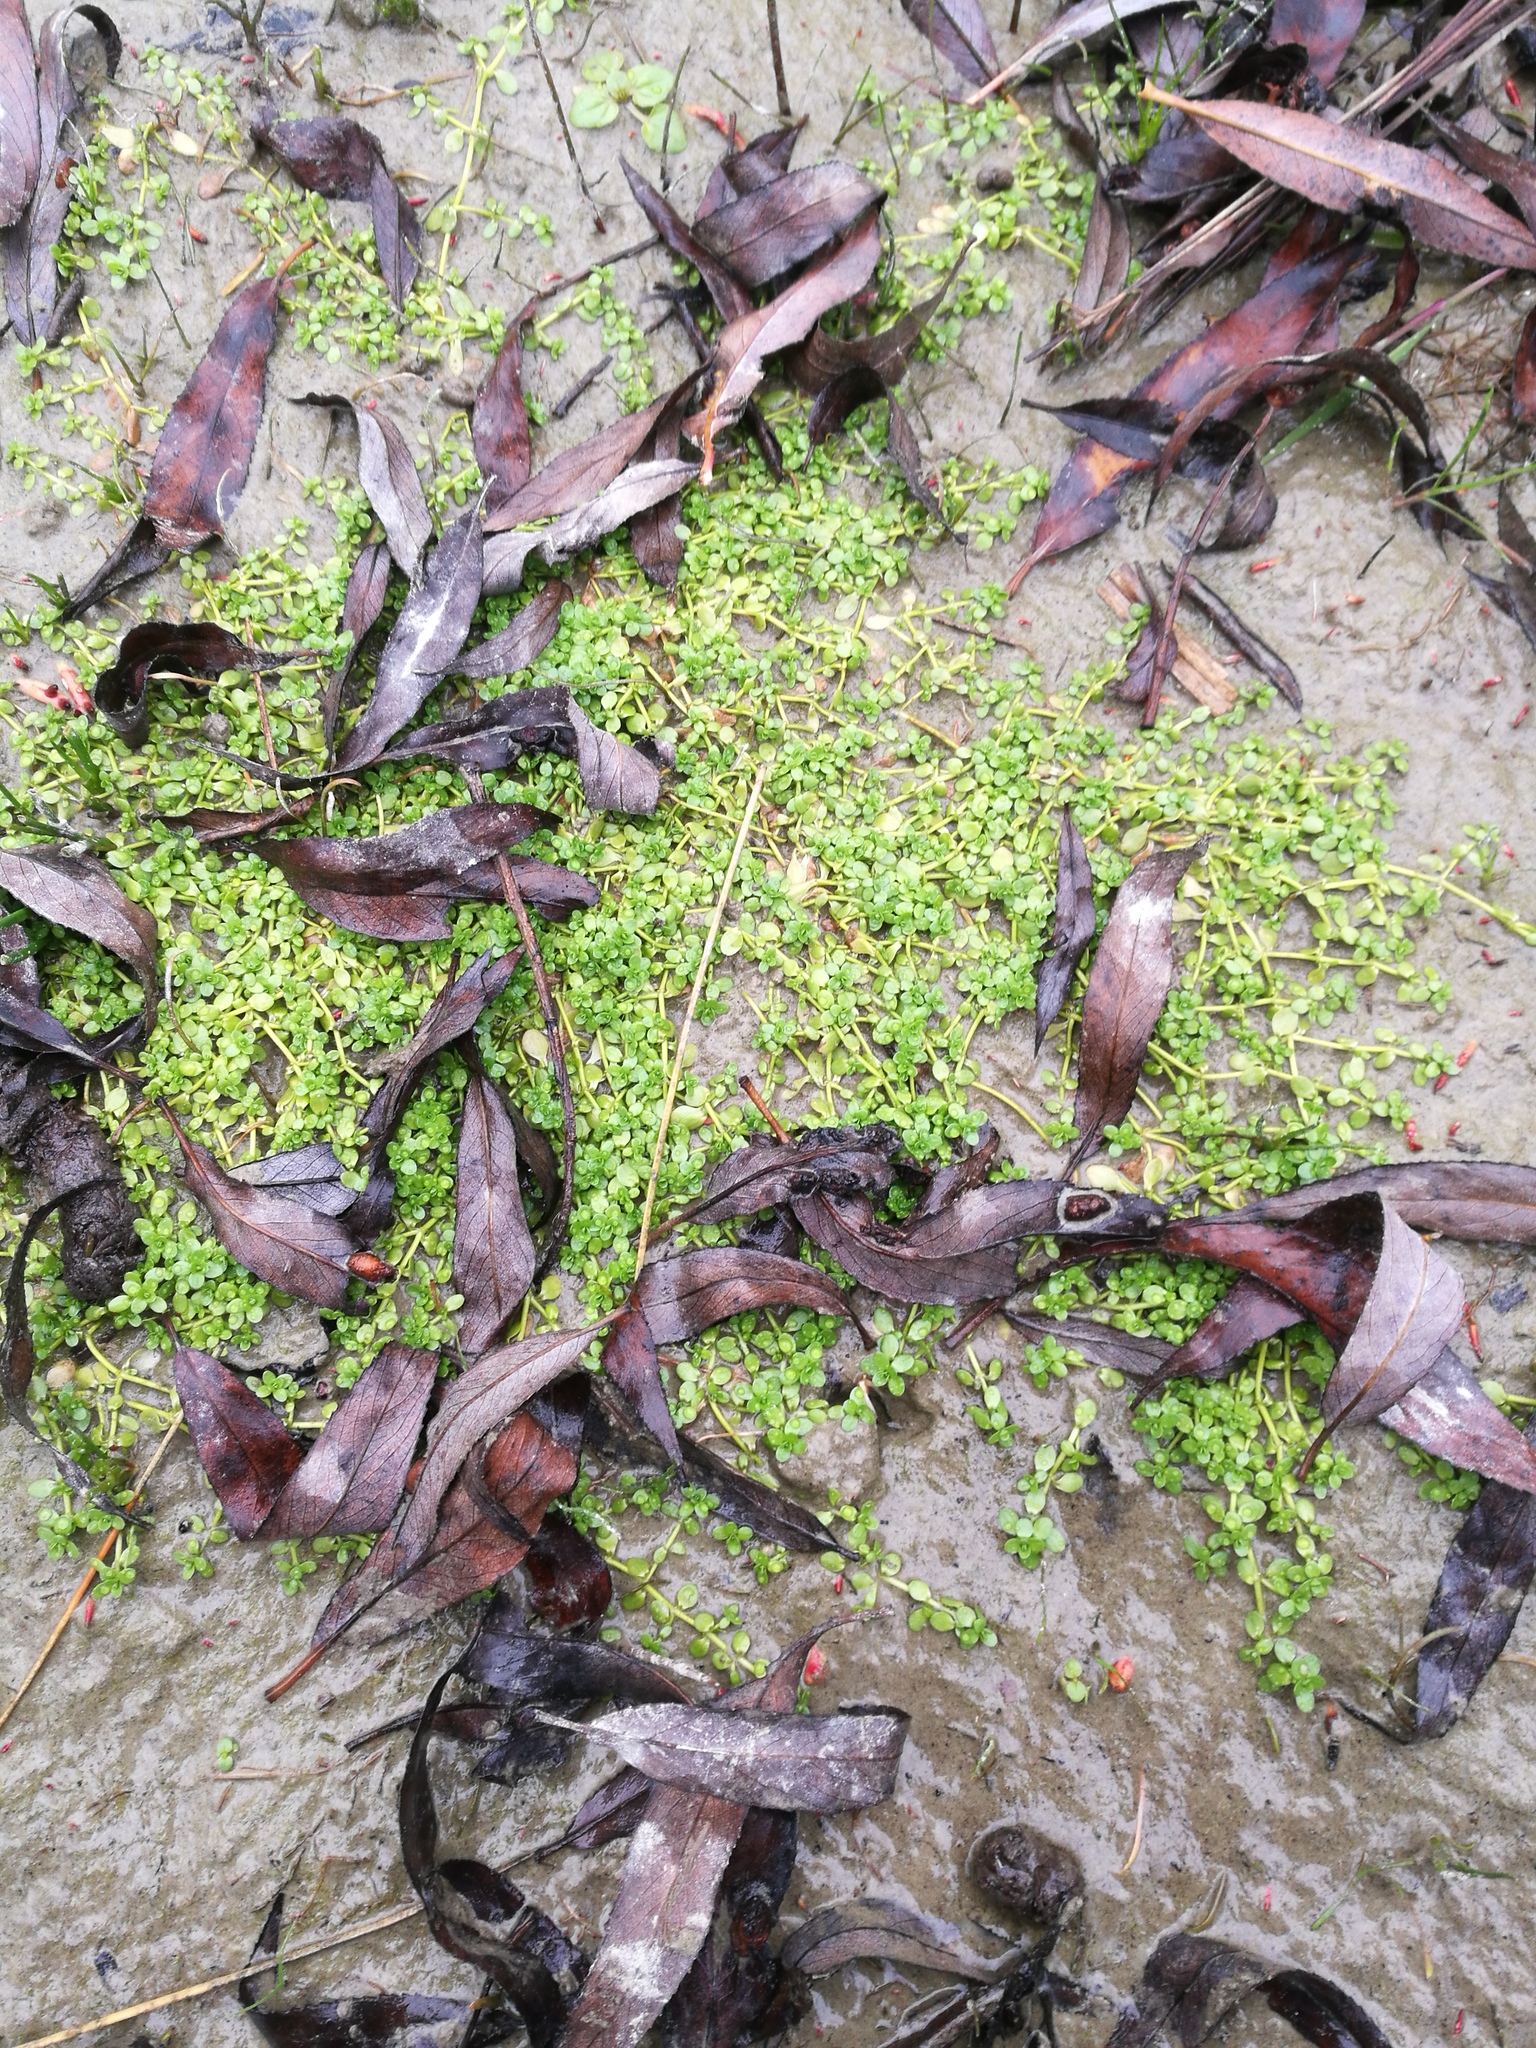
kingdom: Plantae
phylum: Tracheophyta
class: Magnoliopsida
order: Lamiales
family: Plantaginaceae
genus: Callitriche
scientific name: Callitriche stagnalis
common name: Common water-starwort
